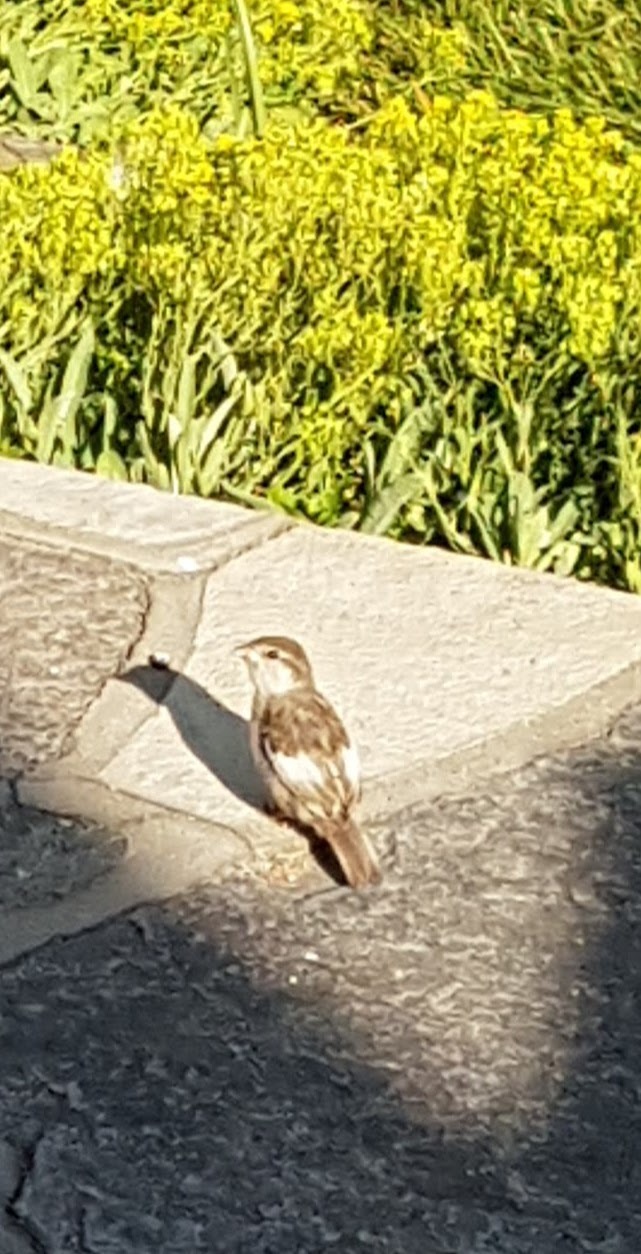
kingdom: Animalia
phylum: Chordata
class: Aves
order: Passeriformes
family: Passeridae
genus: Passer
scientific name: Passer domesticus
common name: House sparrow
